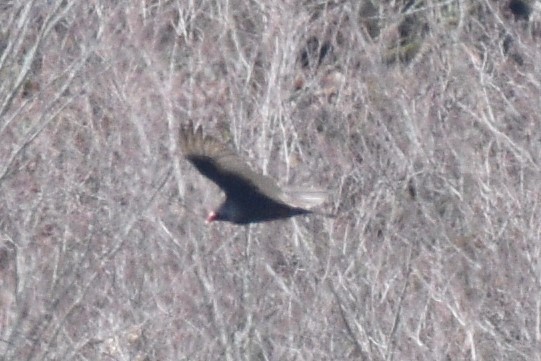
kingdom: Animalia
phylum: Chordata
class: Aves
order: Accipitriformes
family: Cathartidae
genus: Cathartes
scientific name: Cathartes aura
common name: Turkey vulture
